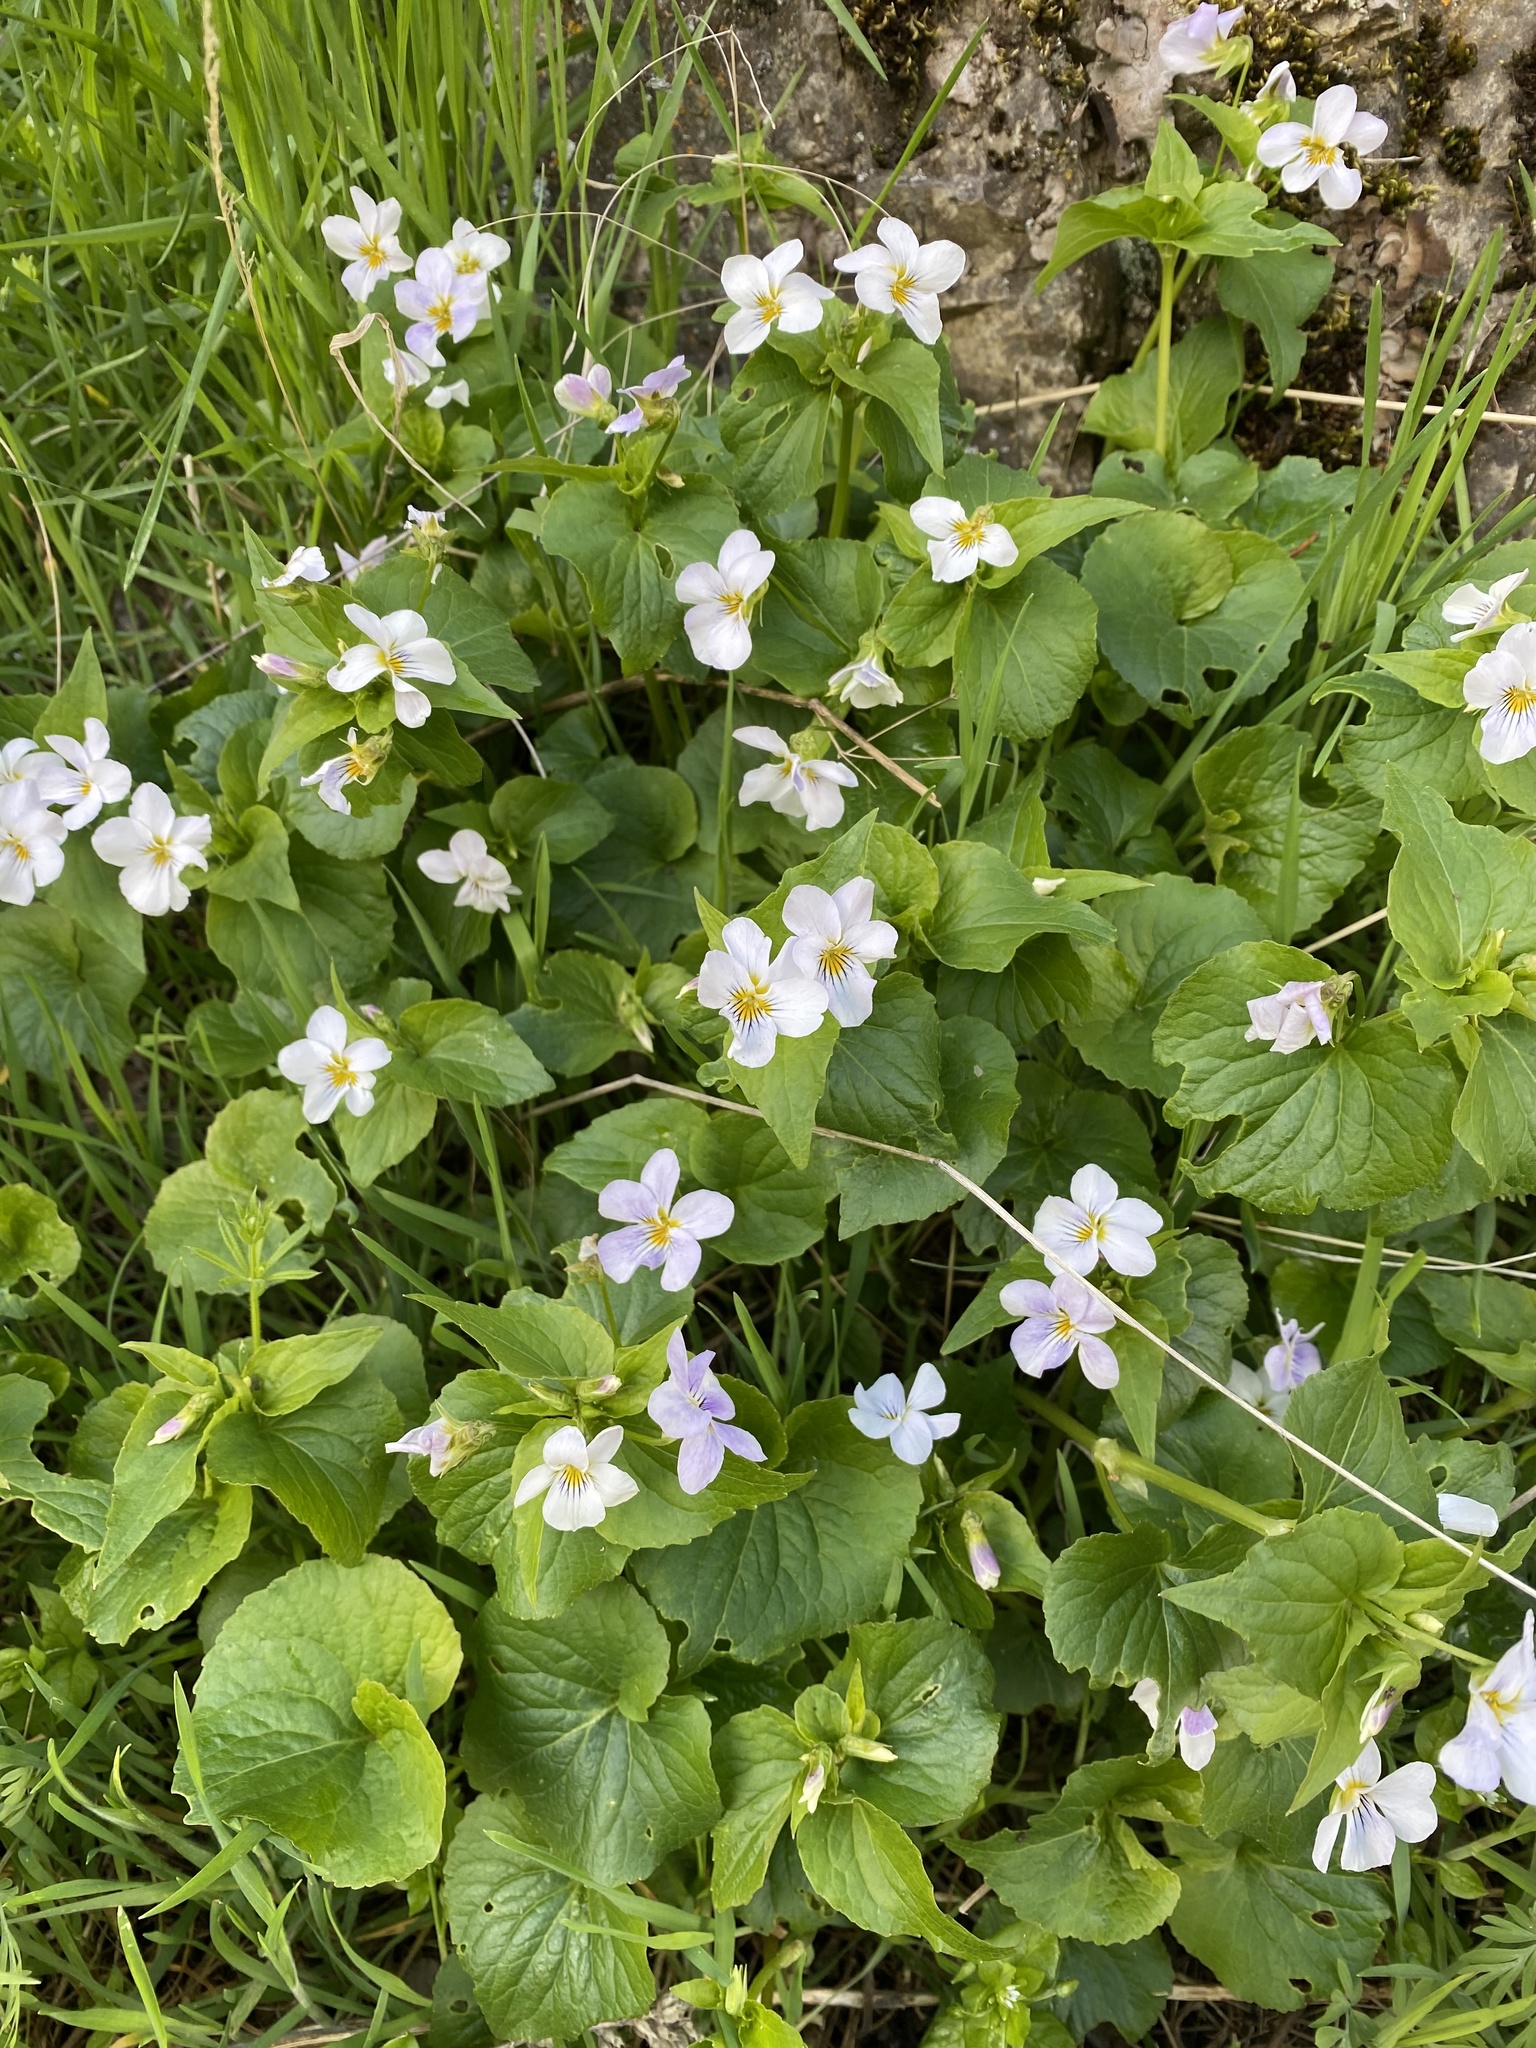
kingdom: Plantae
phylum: Tracheophyta
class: Magnoliopsida
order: Malpighiales
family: Violaceae
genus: Viola
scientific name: Viola canadensis
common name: Canada violet
